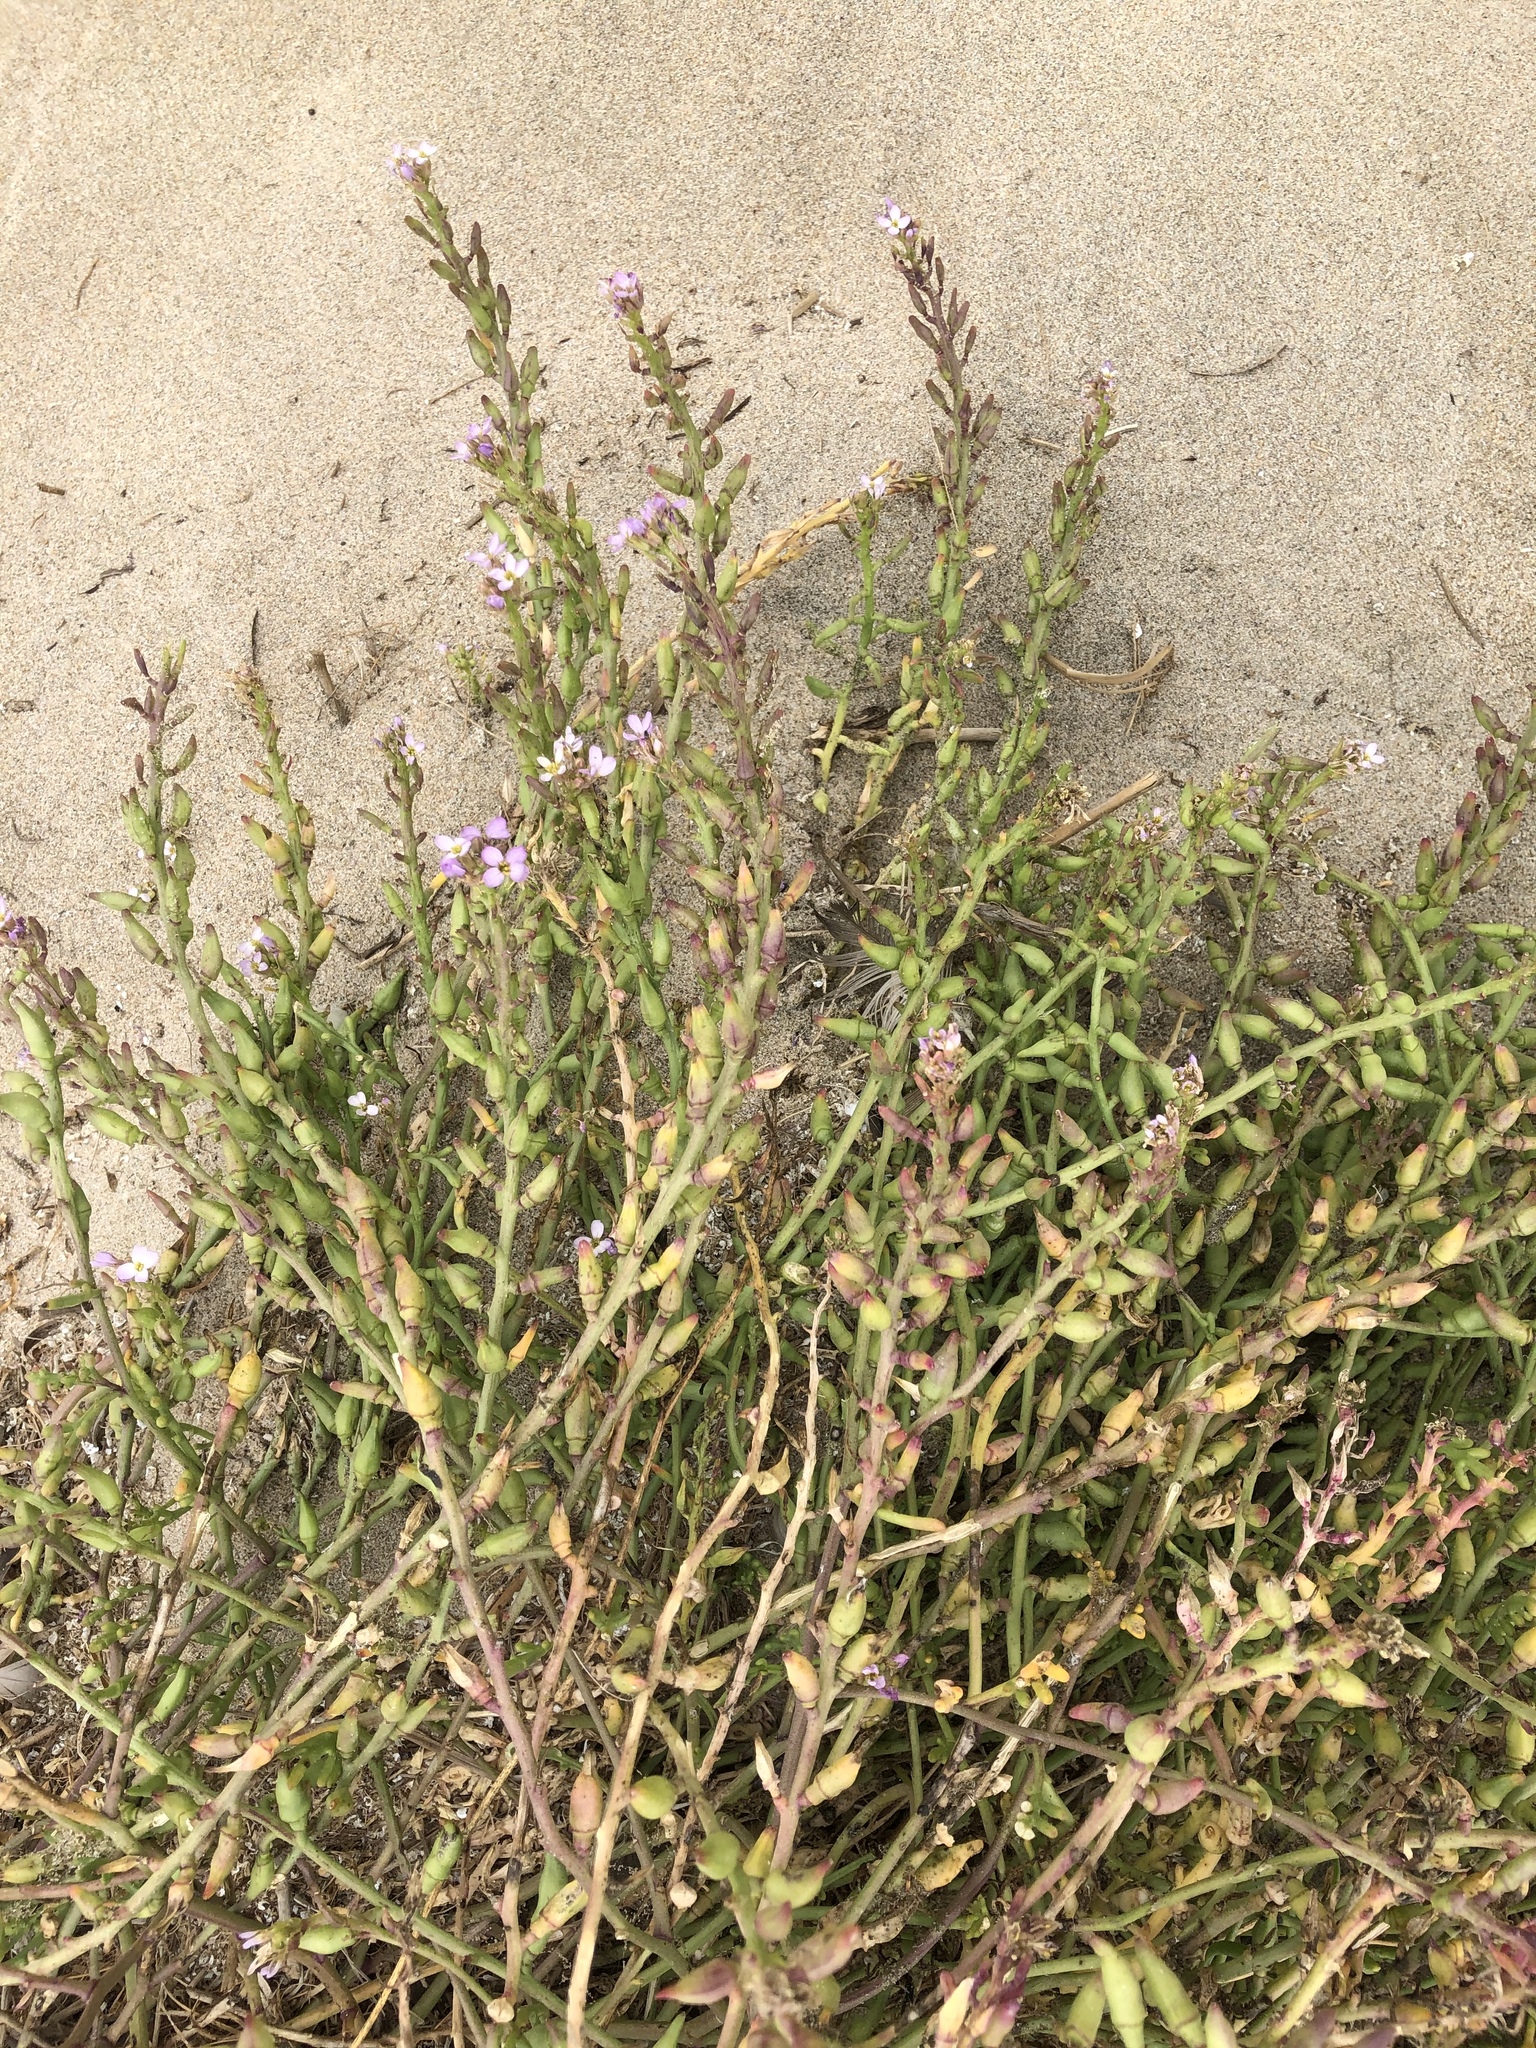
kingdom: Plantae
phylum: Tracheophyta
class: Magnoliopsida
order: Brassicales
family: Brassicaceae
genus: Cakile
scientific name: Cakile maritima
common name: Sea rocket
